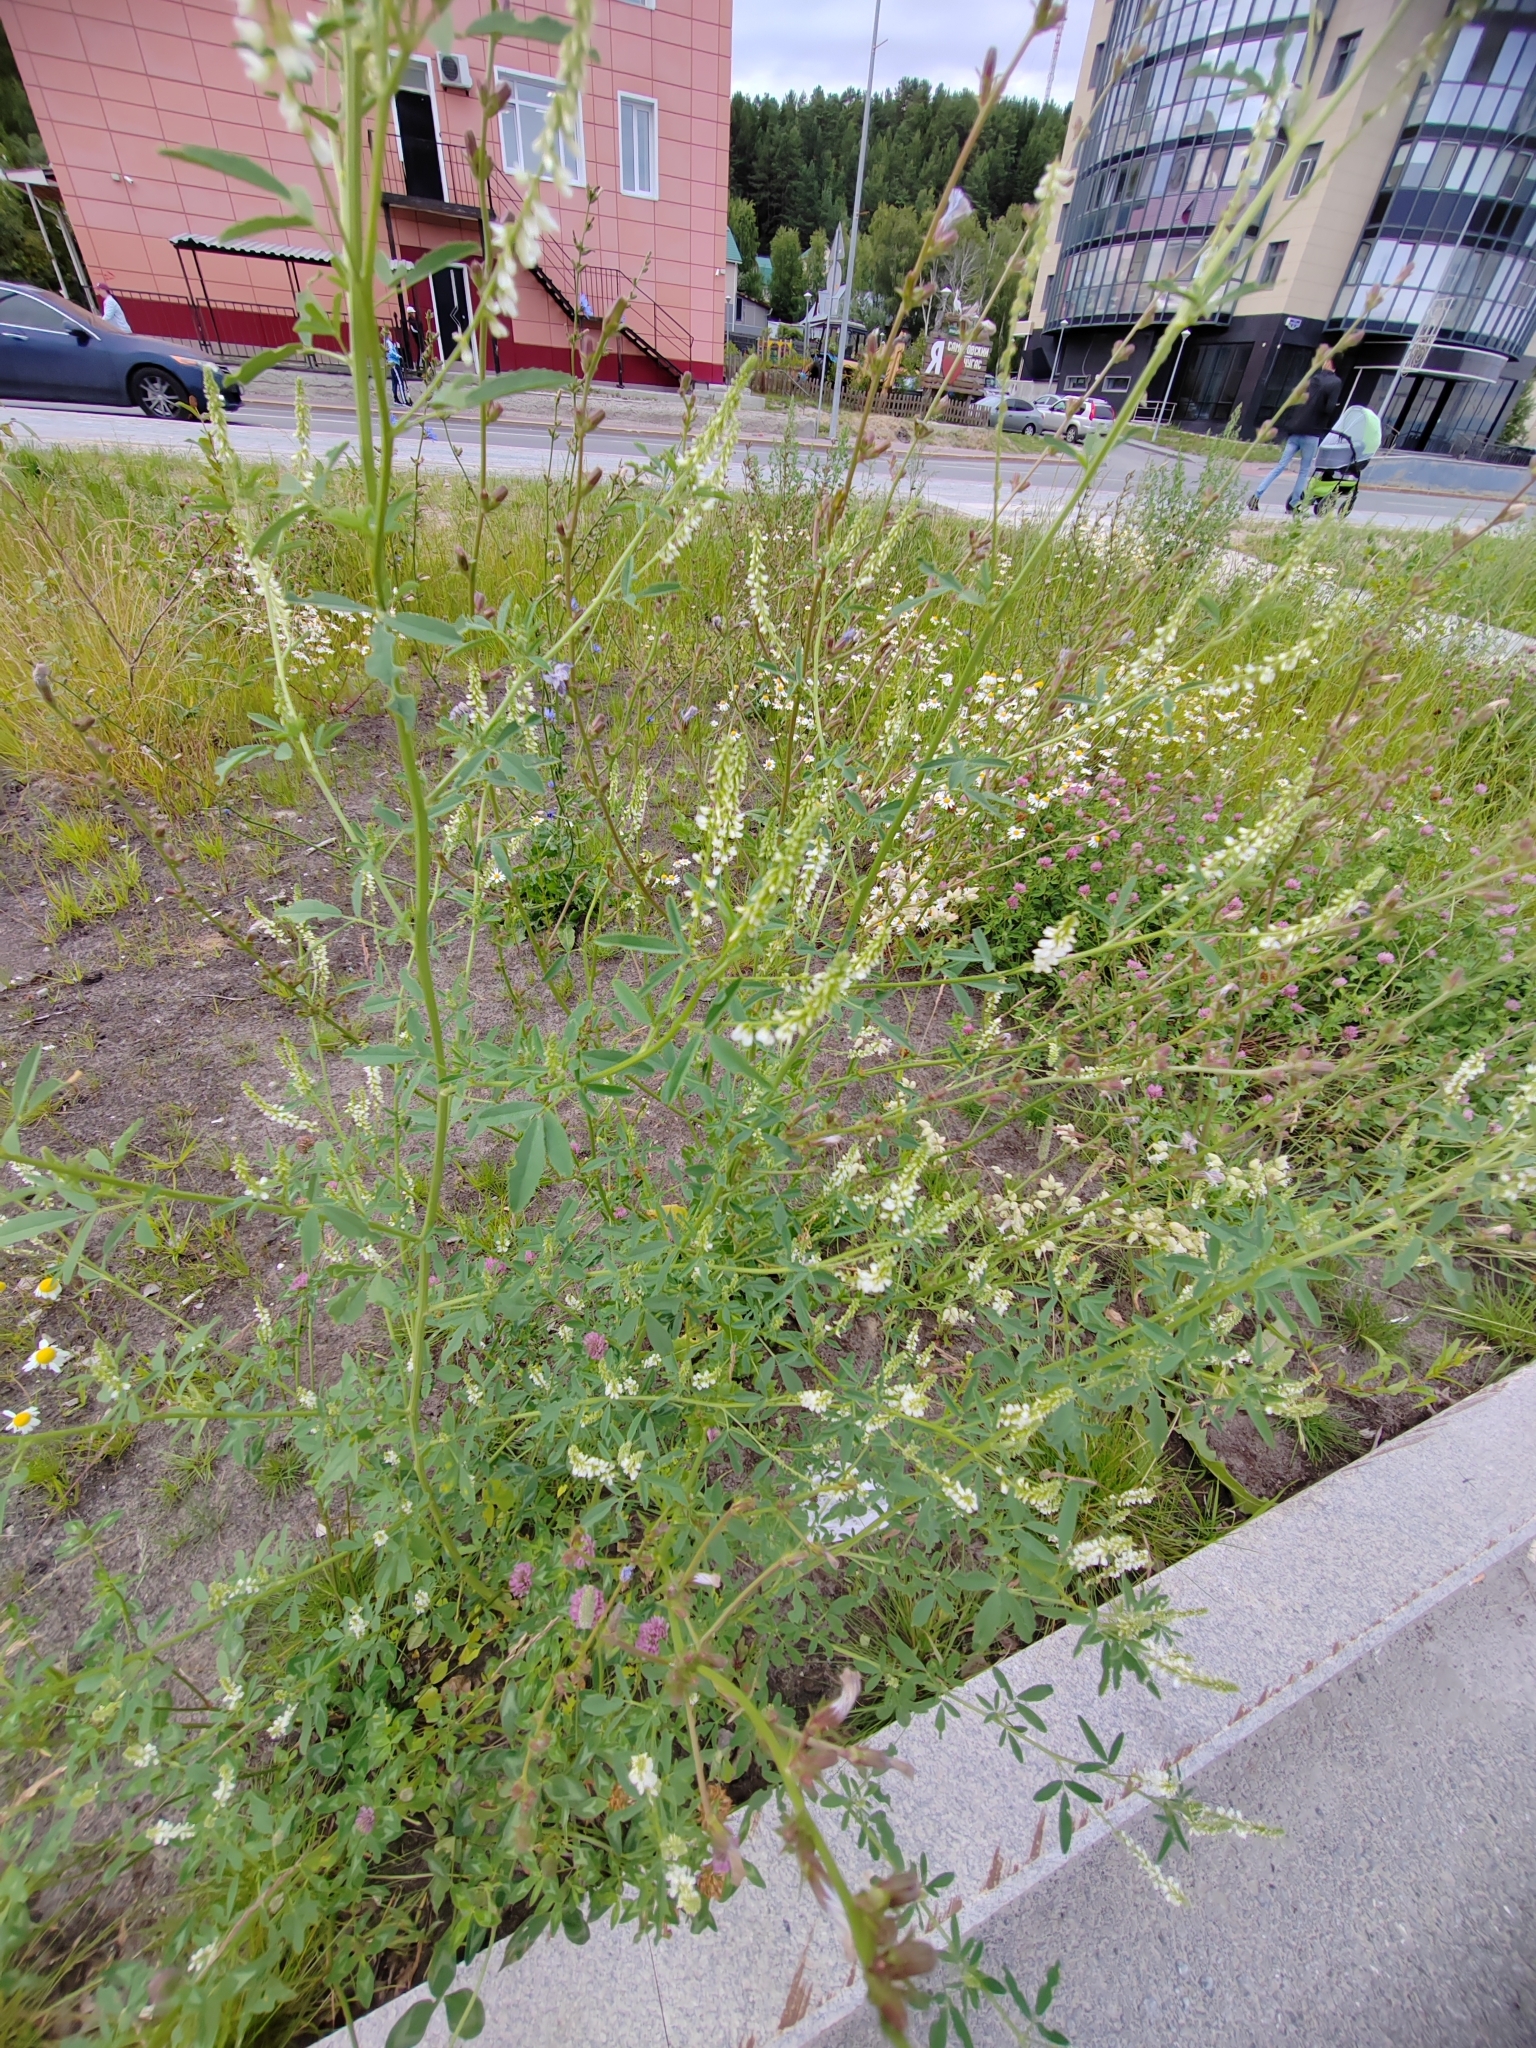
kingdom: Plantae
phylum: Tracheophyta
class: Magnoliopsida
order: Fabales
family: Fabaceae
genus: Melilotus
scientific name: Melilotus albus
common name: White melilot
